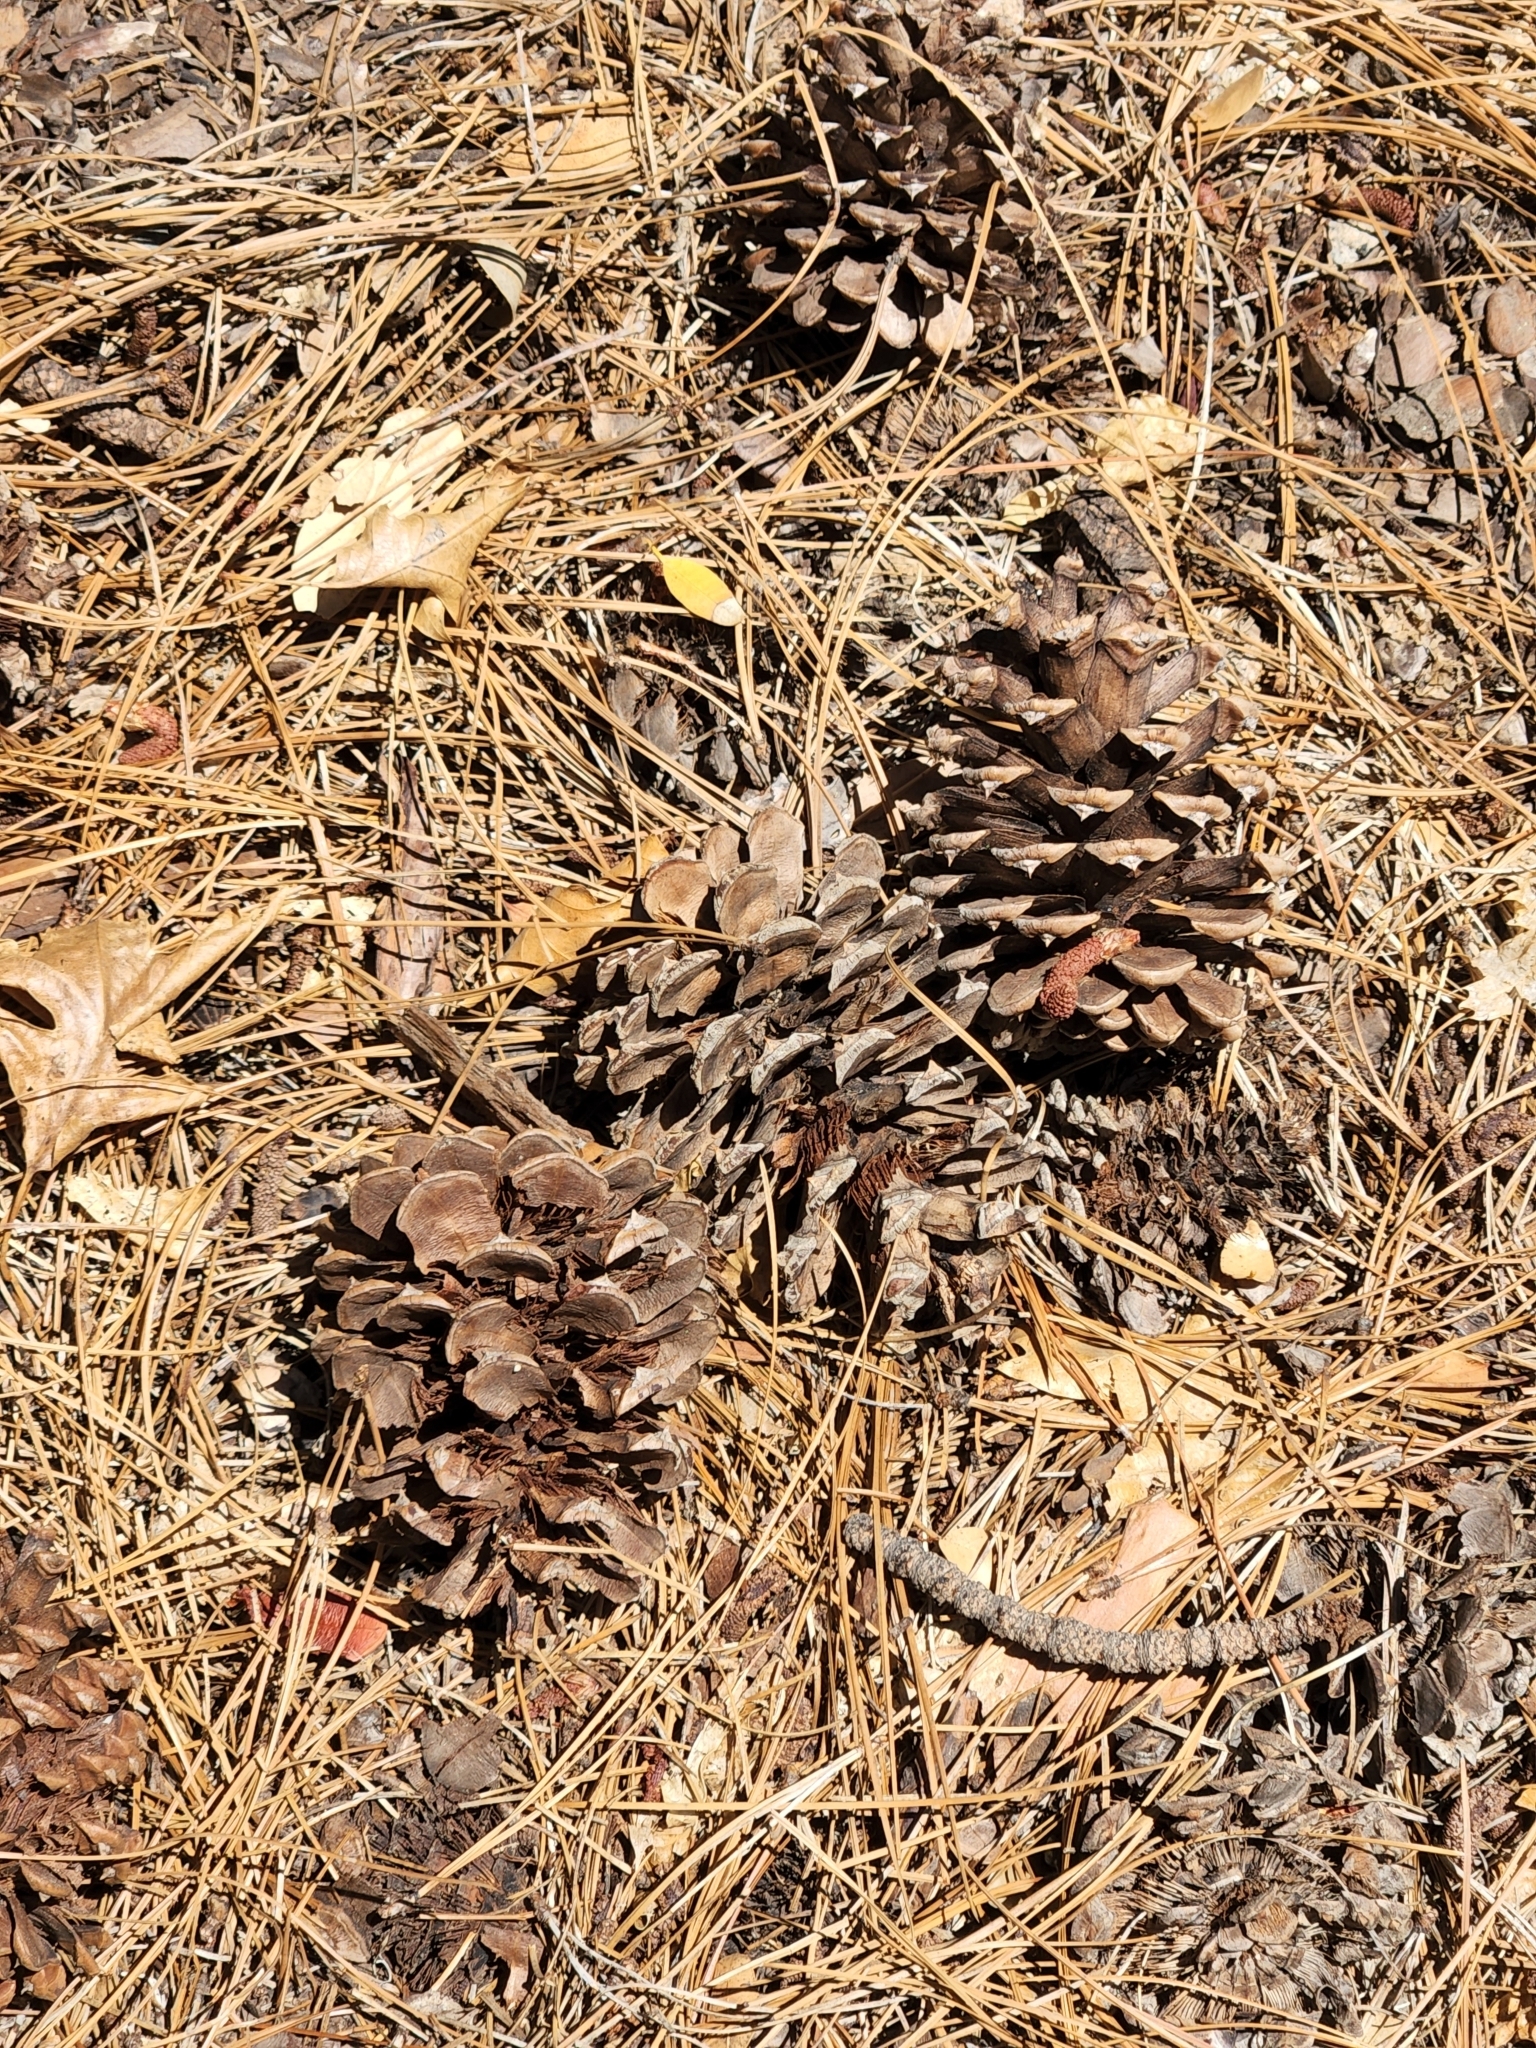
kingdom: Plantae
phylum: Tracheophyta
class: Pinopsida
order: Pinales
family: Pinaceae
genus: Pinus
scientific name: Pinus ponderosa
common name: Western yellow-pine
